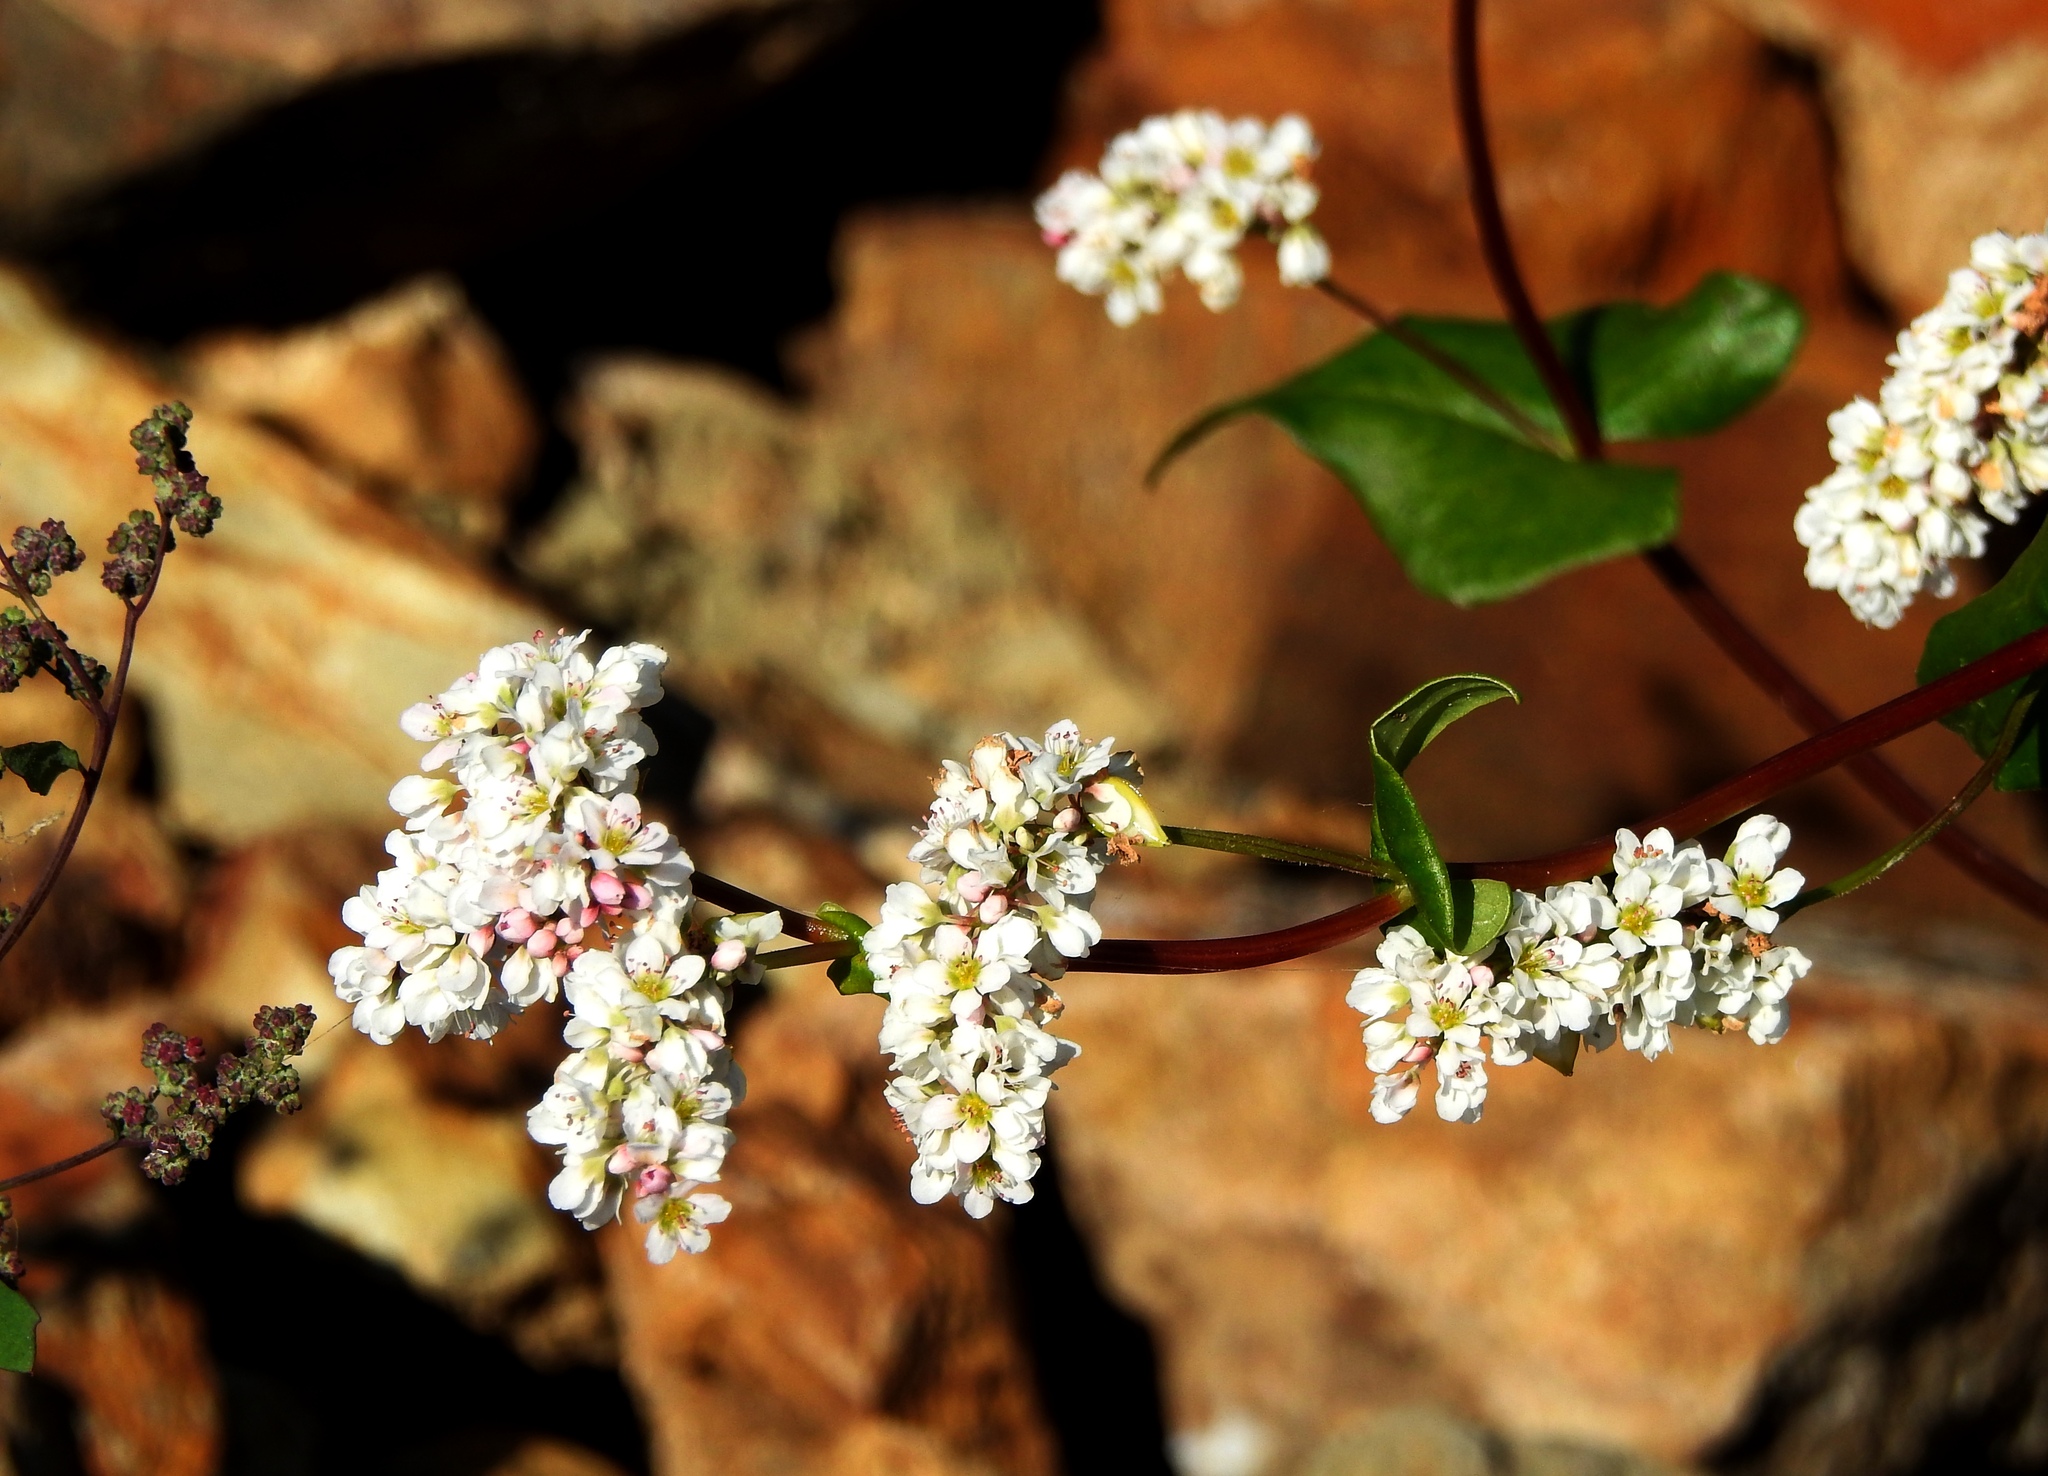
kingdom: Plantae
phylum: Tracheophyta
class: Magnoliopsida
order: Caryophyllales
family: Polygonaceae
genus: Fagopyrum
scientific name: Fagopyrum esculentum
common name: Buckwheat
